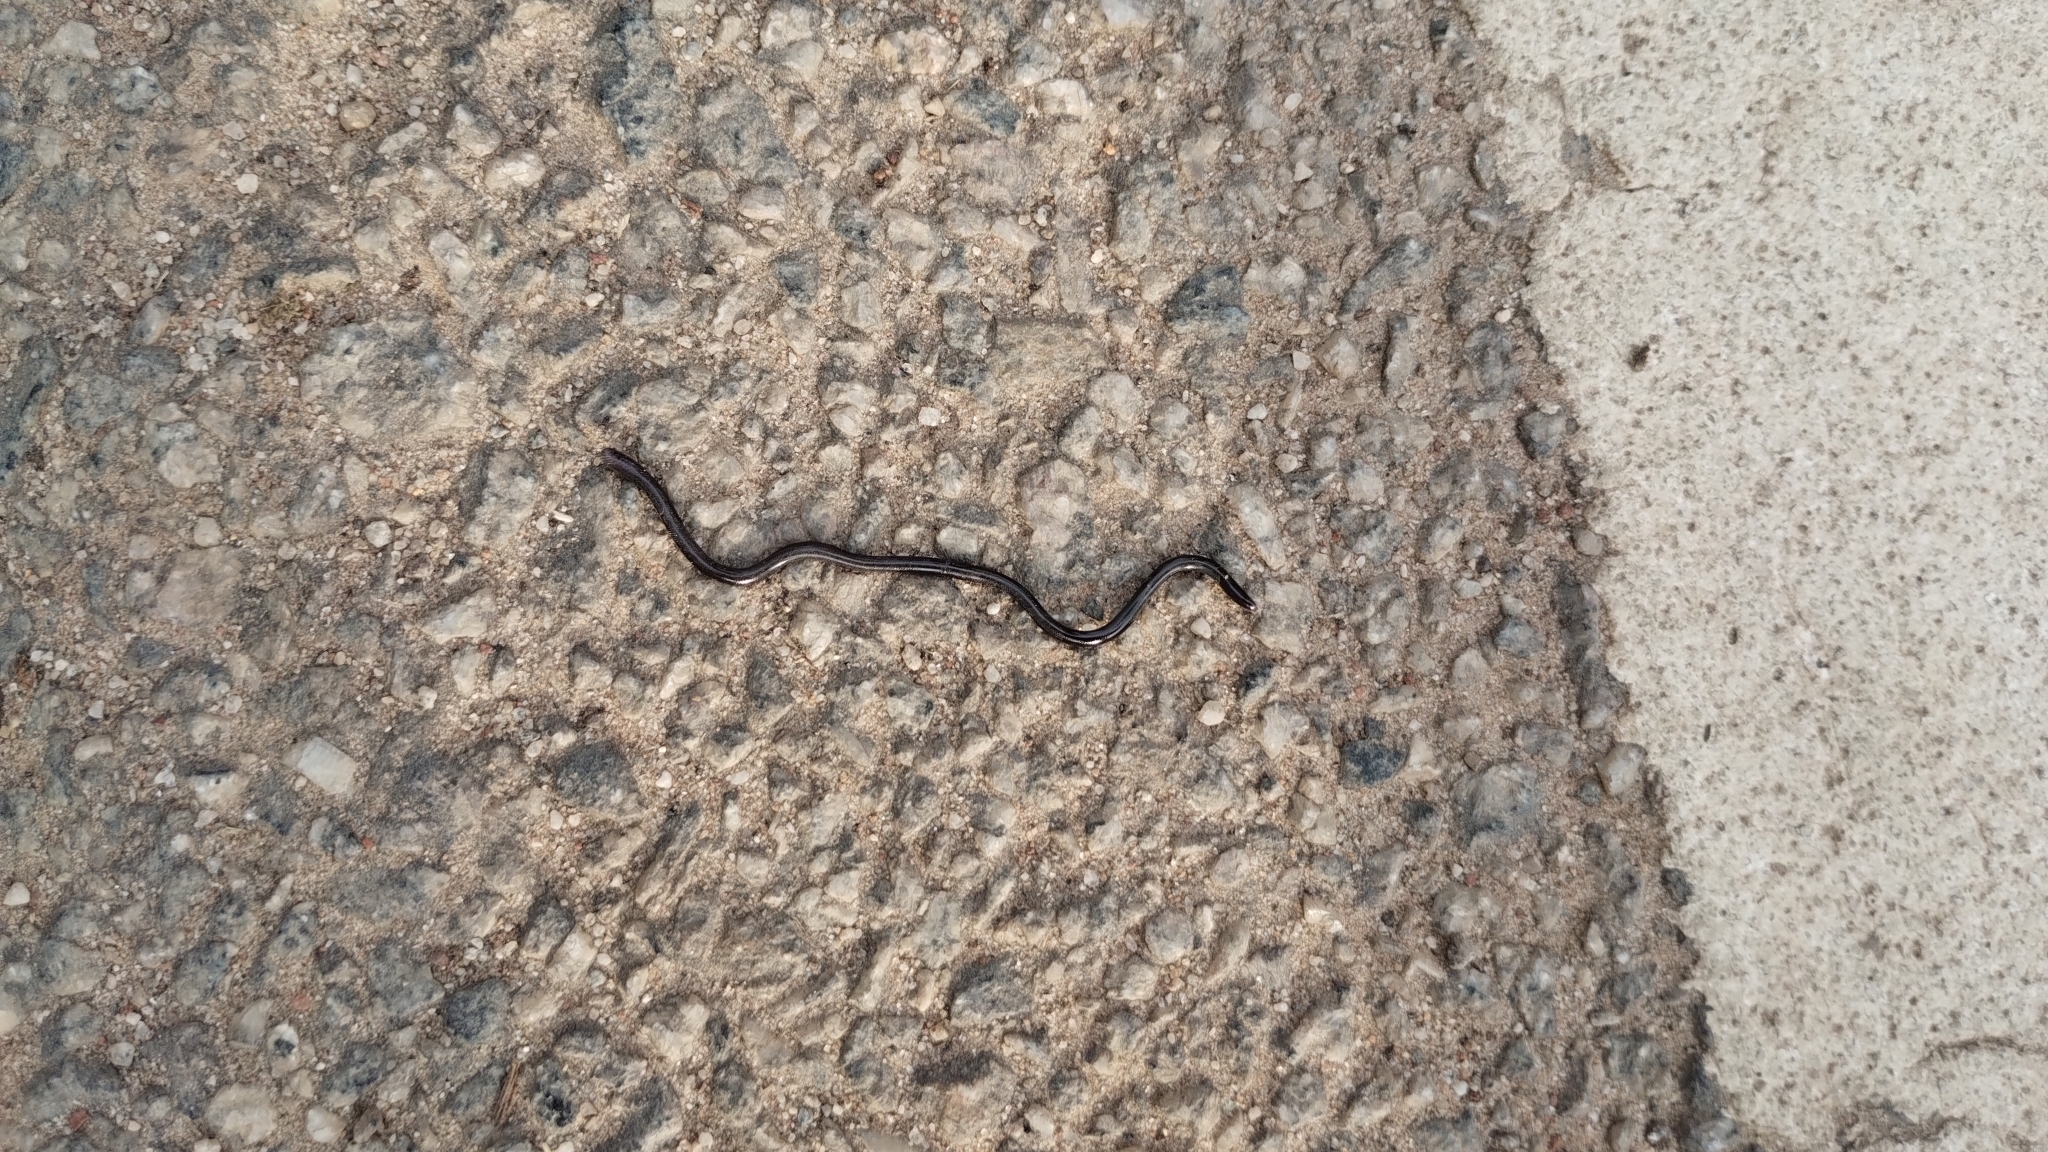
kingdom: Animalia
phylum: Chordata
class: Squamata
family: Typhlopidae
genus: Indotyphlops
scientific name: Indotyphlops braminus
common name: Brahminy blindsnake
